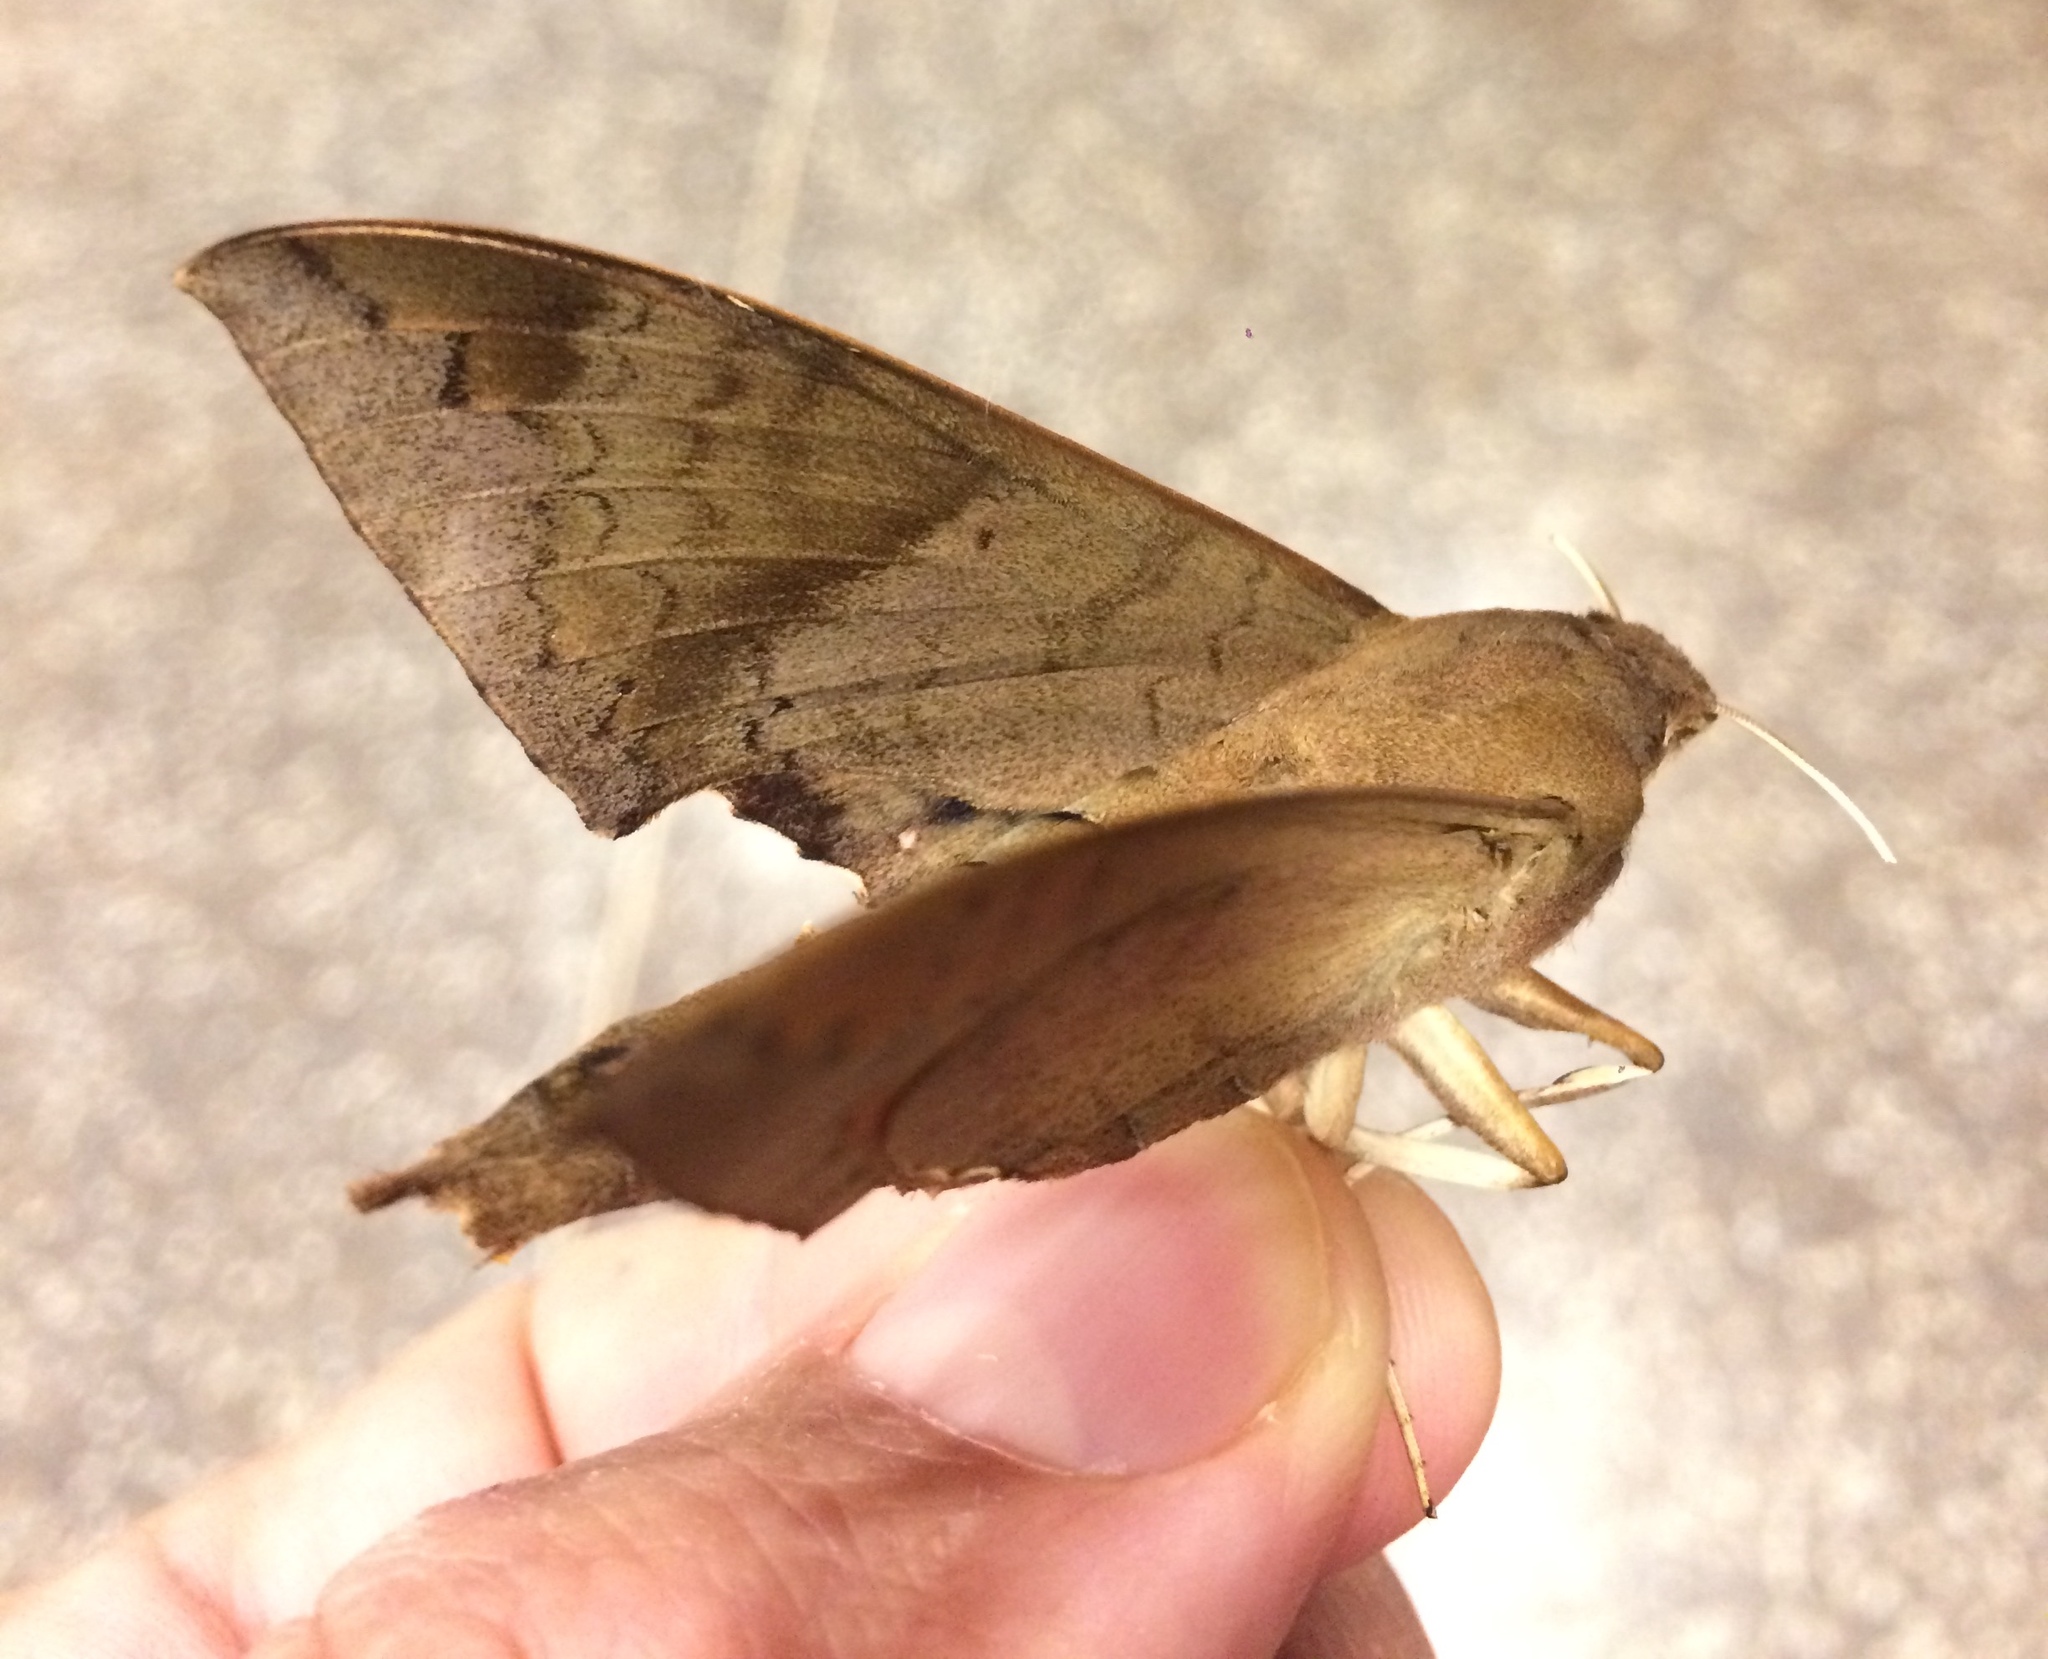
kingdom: Animalia
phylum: Arthropoda
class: Insecta
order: Lepidoptera
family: Sphingidae
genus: Pachylioides
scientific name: Pachylioides resumens
